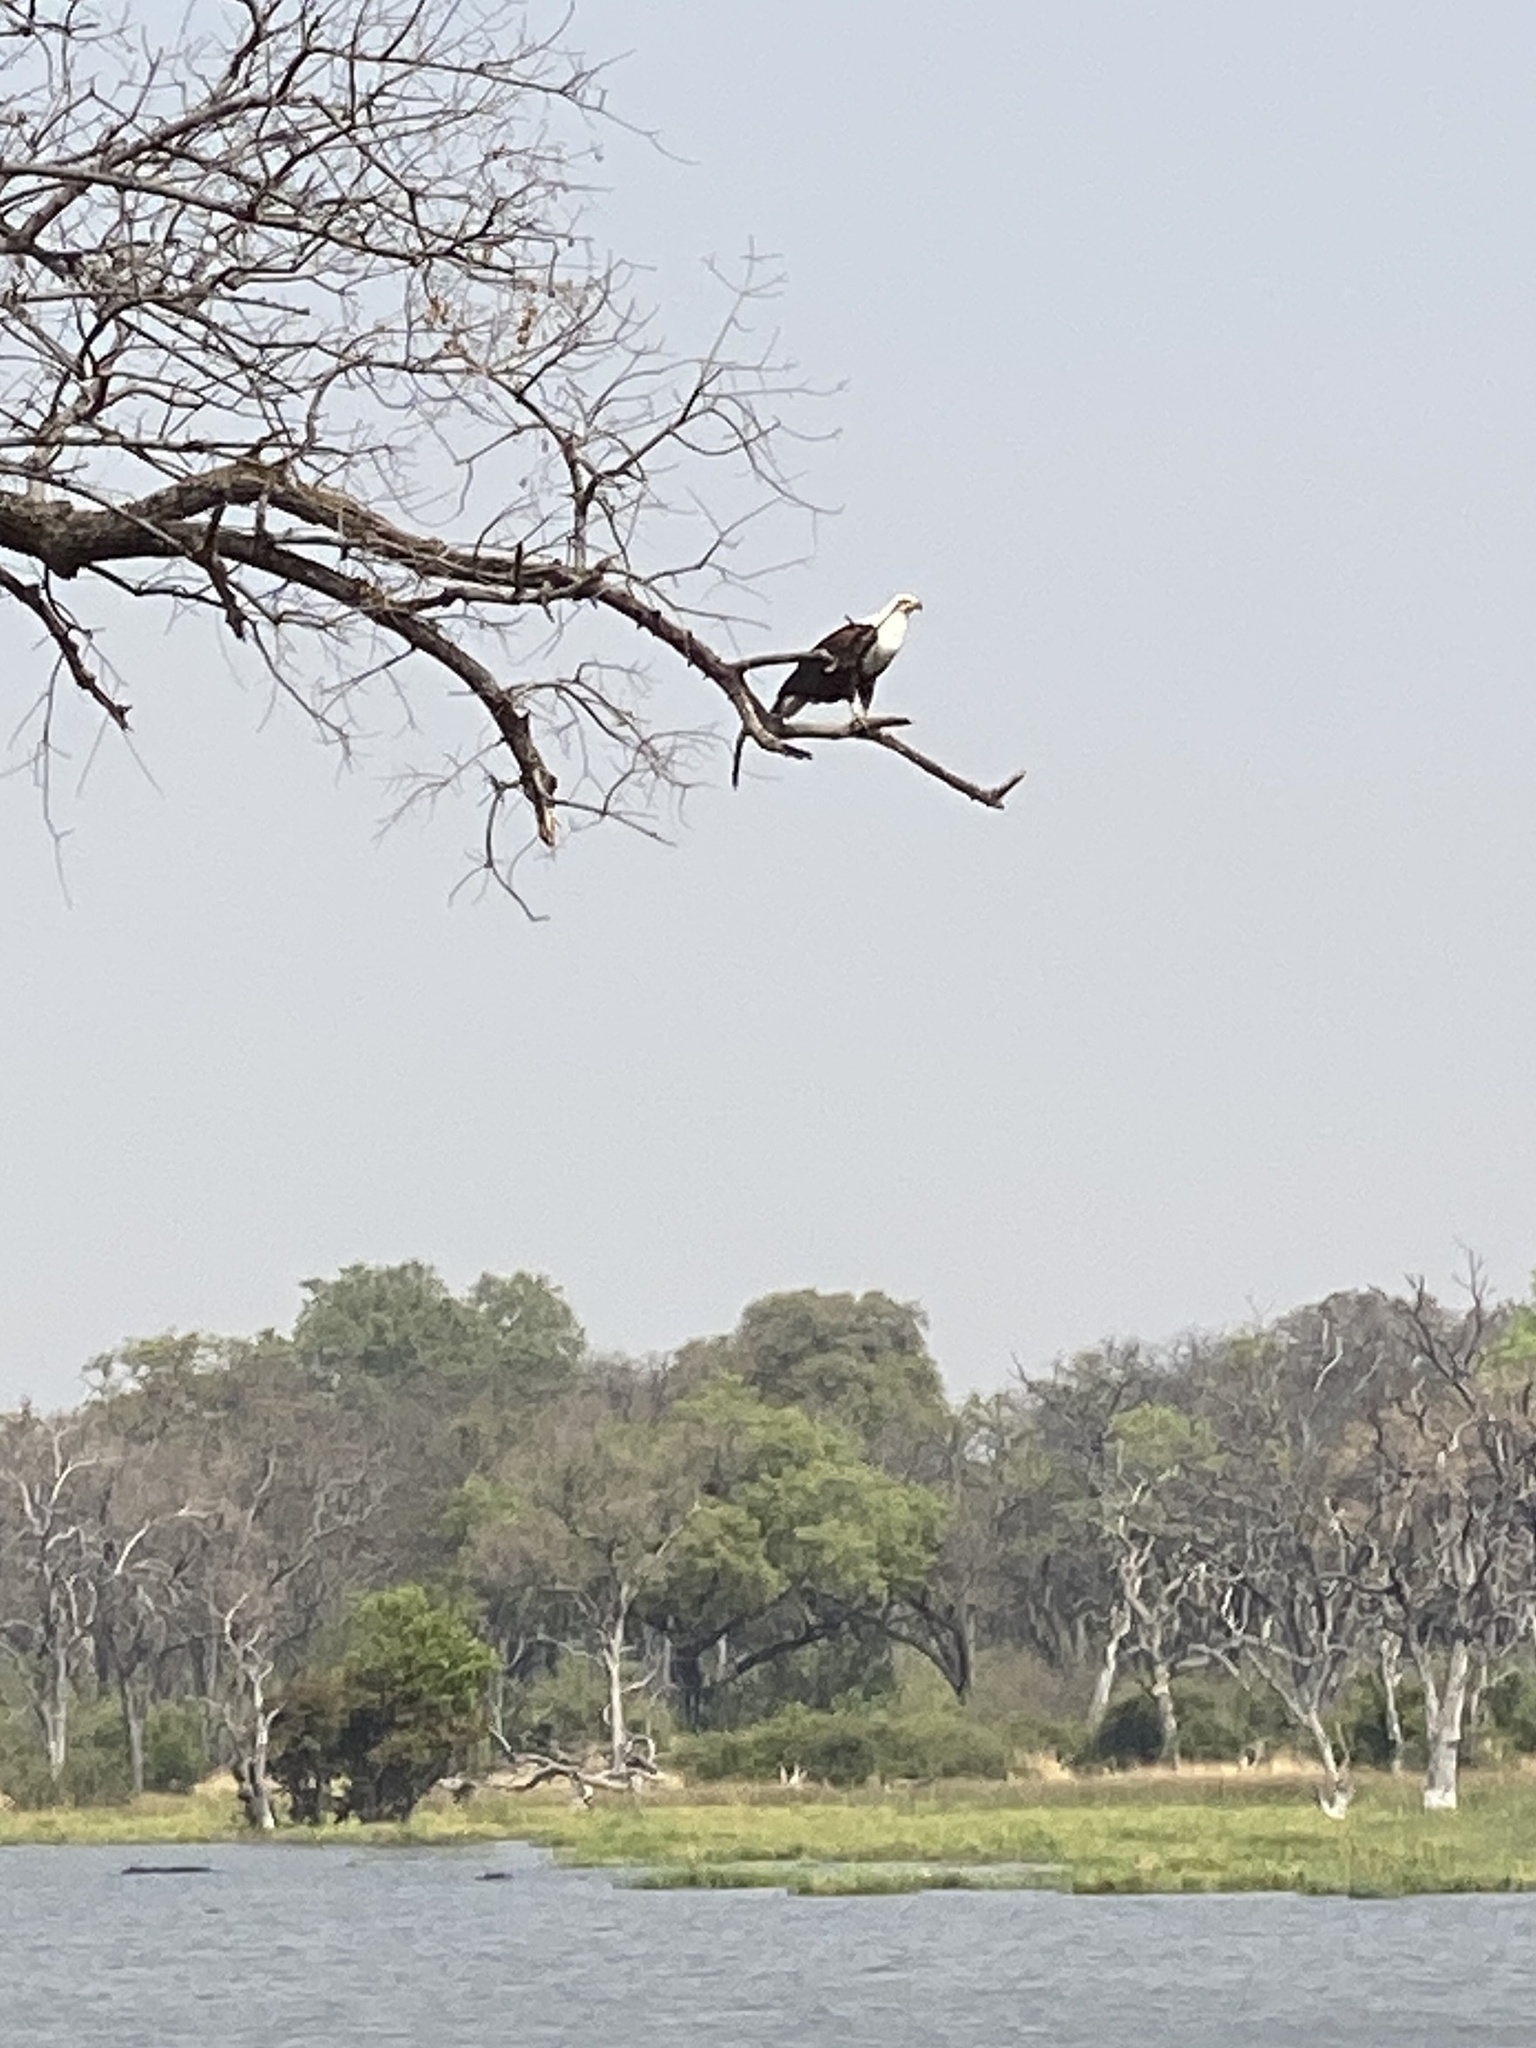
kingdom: Animalia
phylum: Chordata
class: Aves
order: Accipitriformes
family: Accipitridae
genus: Haliaeetus
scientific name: Haliaeetus vocifer
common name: African fish eagle
